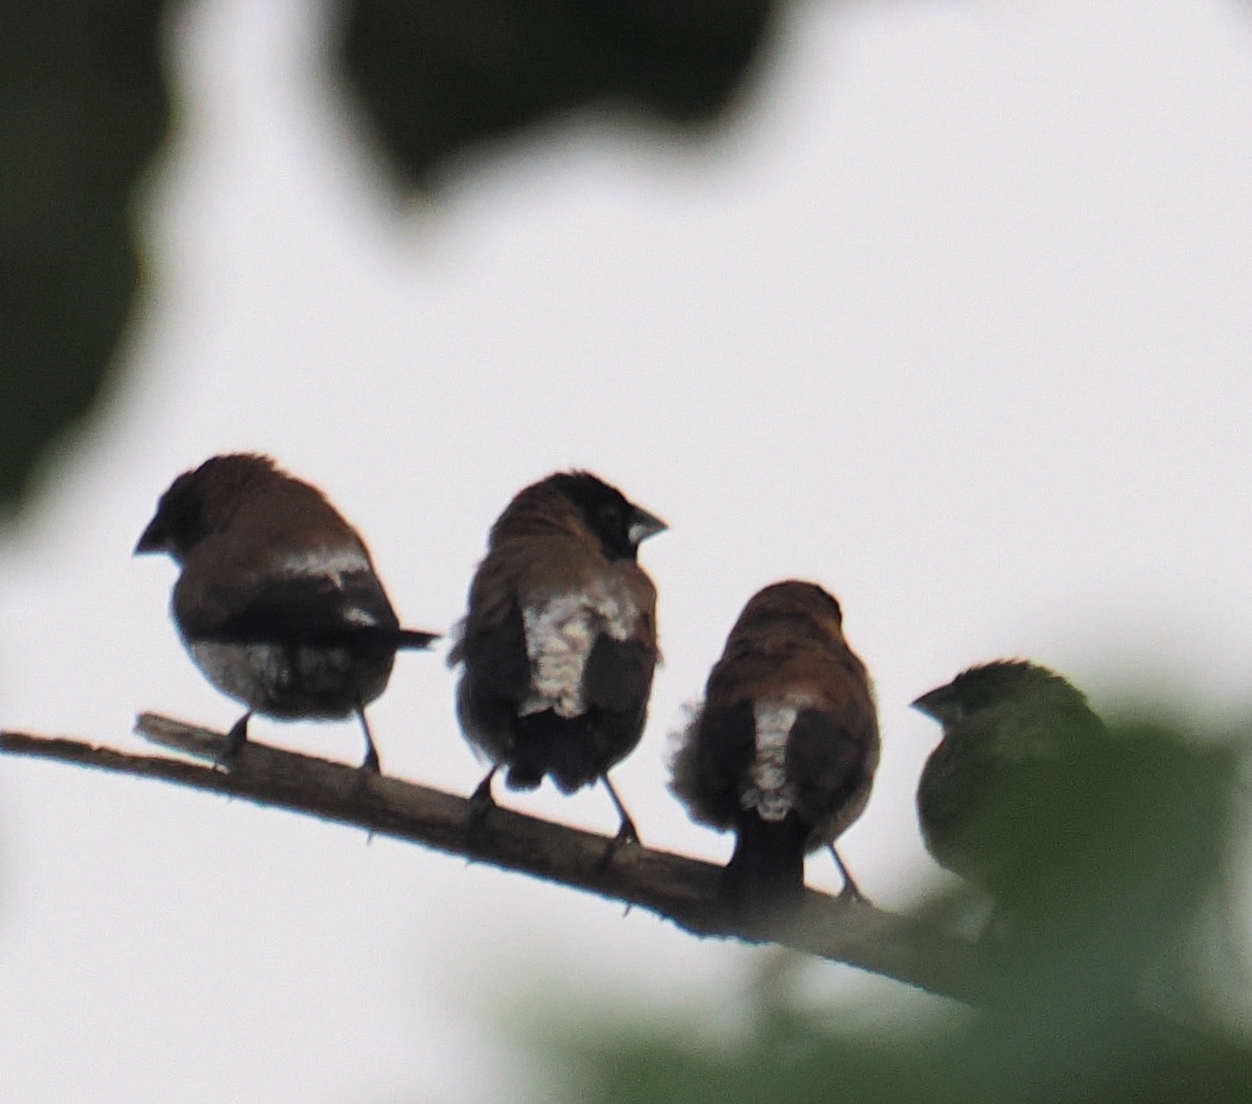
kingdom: Animalia
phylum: Chordata
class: Aves
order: Passeriformes
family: Estrildidae
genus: Lonchura
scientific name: Lonchura molucca
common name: Black-faced munia
